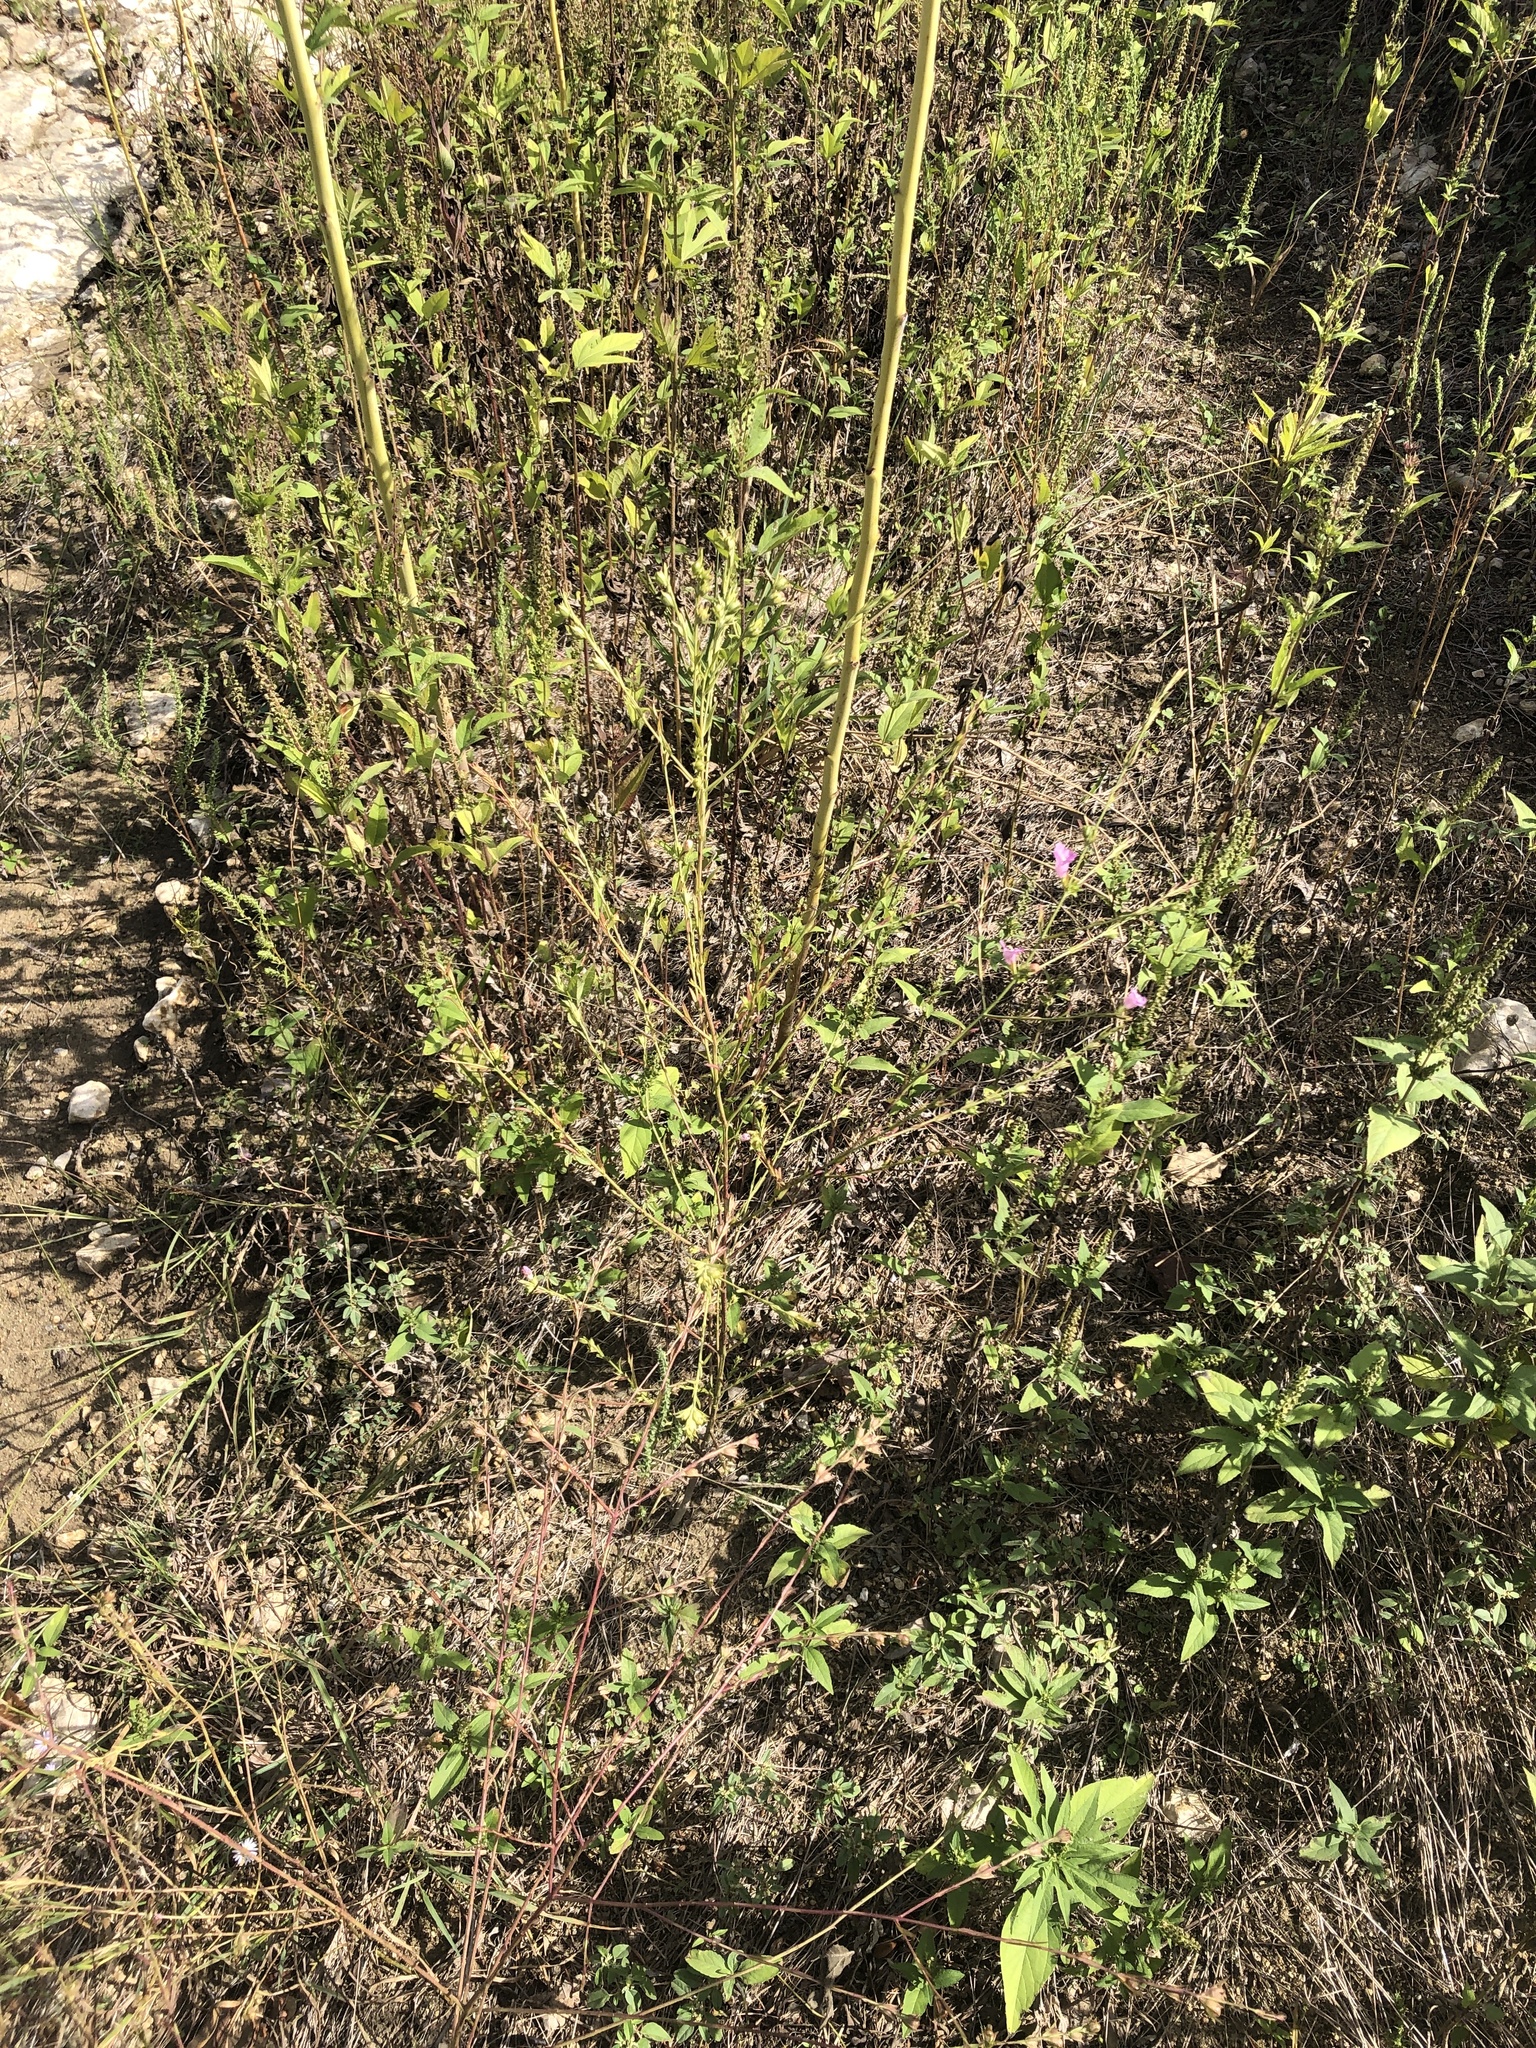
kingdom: Plantae
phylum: Tracheophyta
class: Magnoliopsida
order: Lamiales
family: Orobanchaceae
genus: Agalinis
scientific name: Agalinis heterophylla
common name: Prairie agalinis
